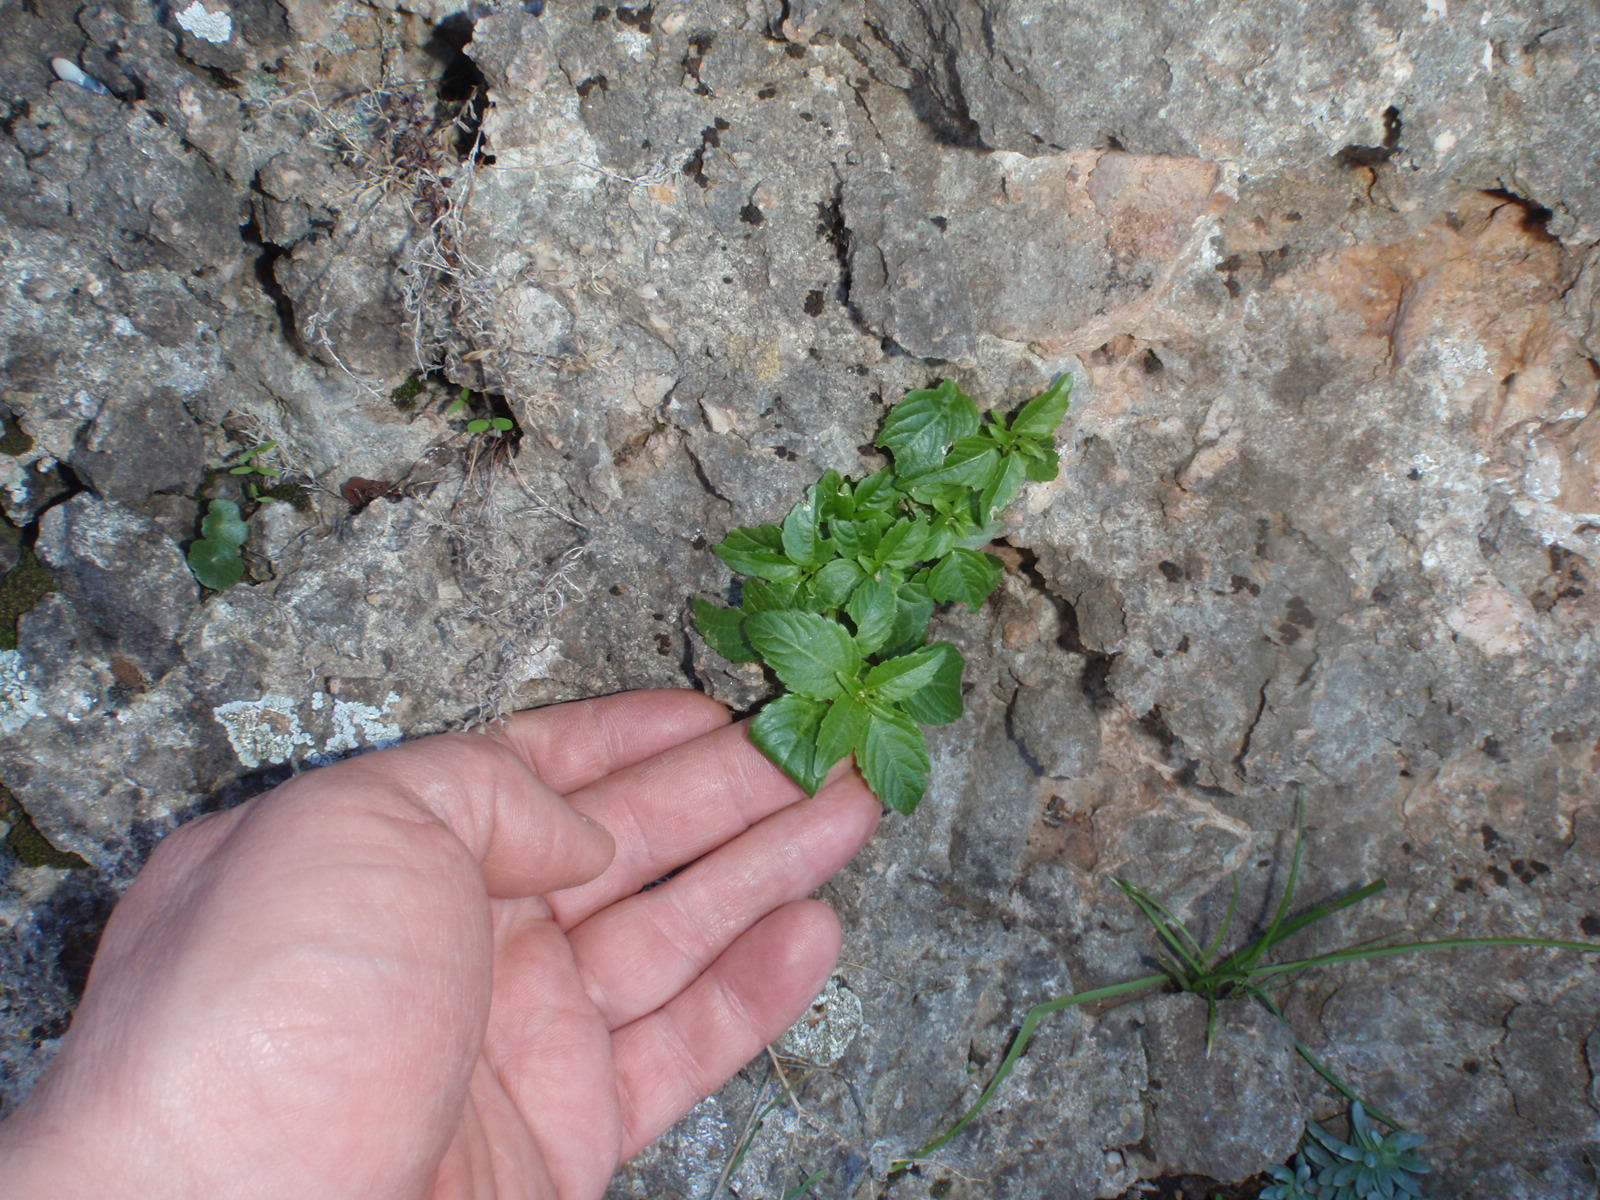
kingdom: Plantae
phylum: Tracheophyta
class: Magnoliopsida
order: Malpighiales
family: Euphorbiaceae
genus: Mercurialis
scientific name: Mercurialis annua
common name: Annual mercury
